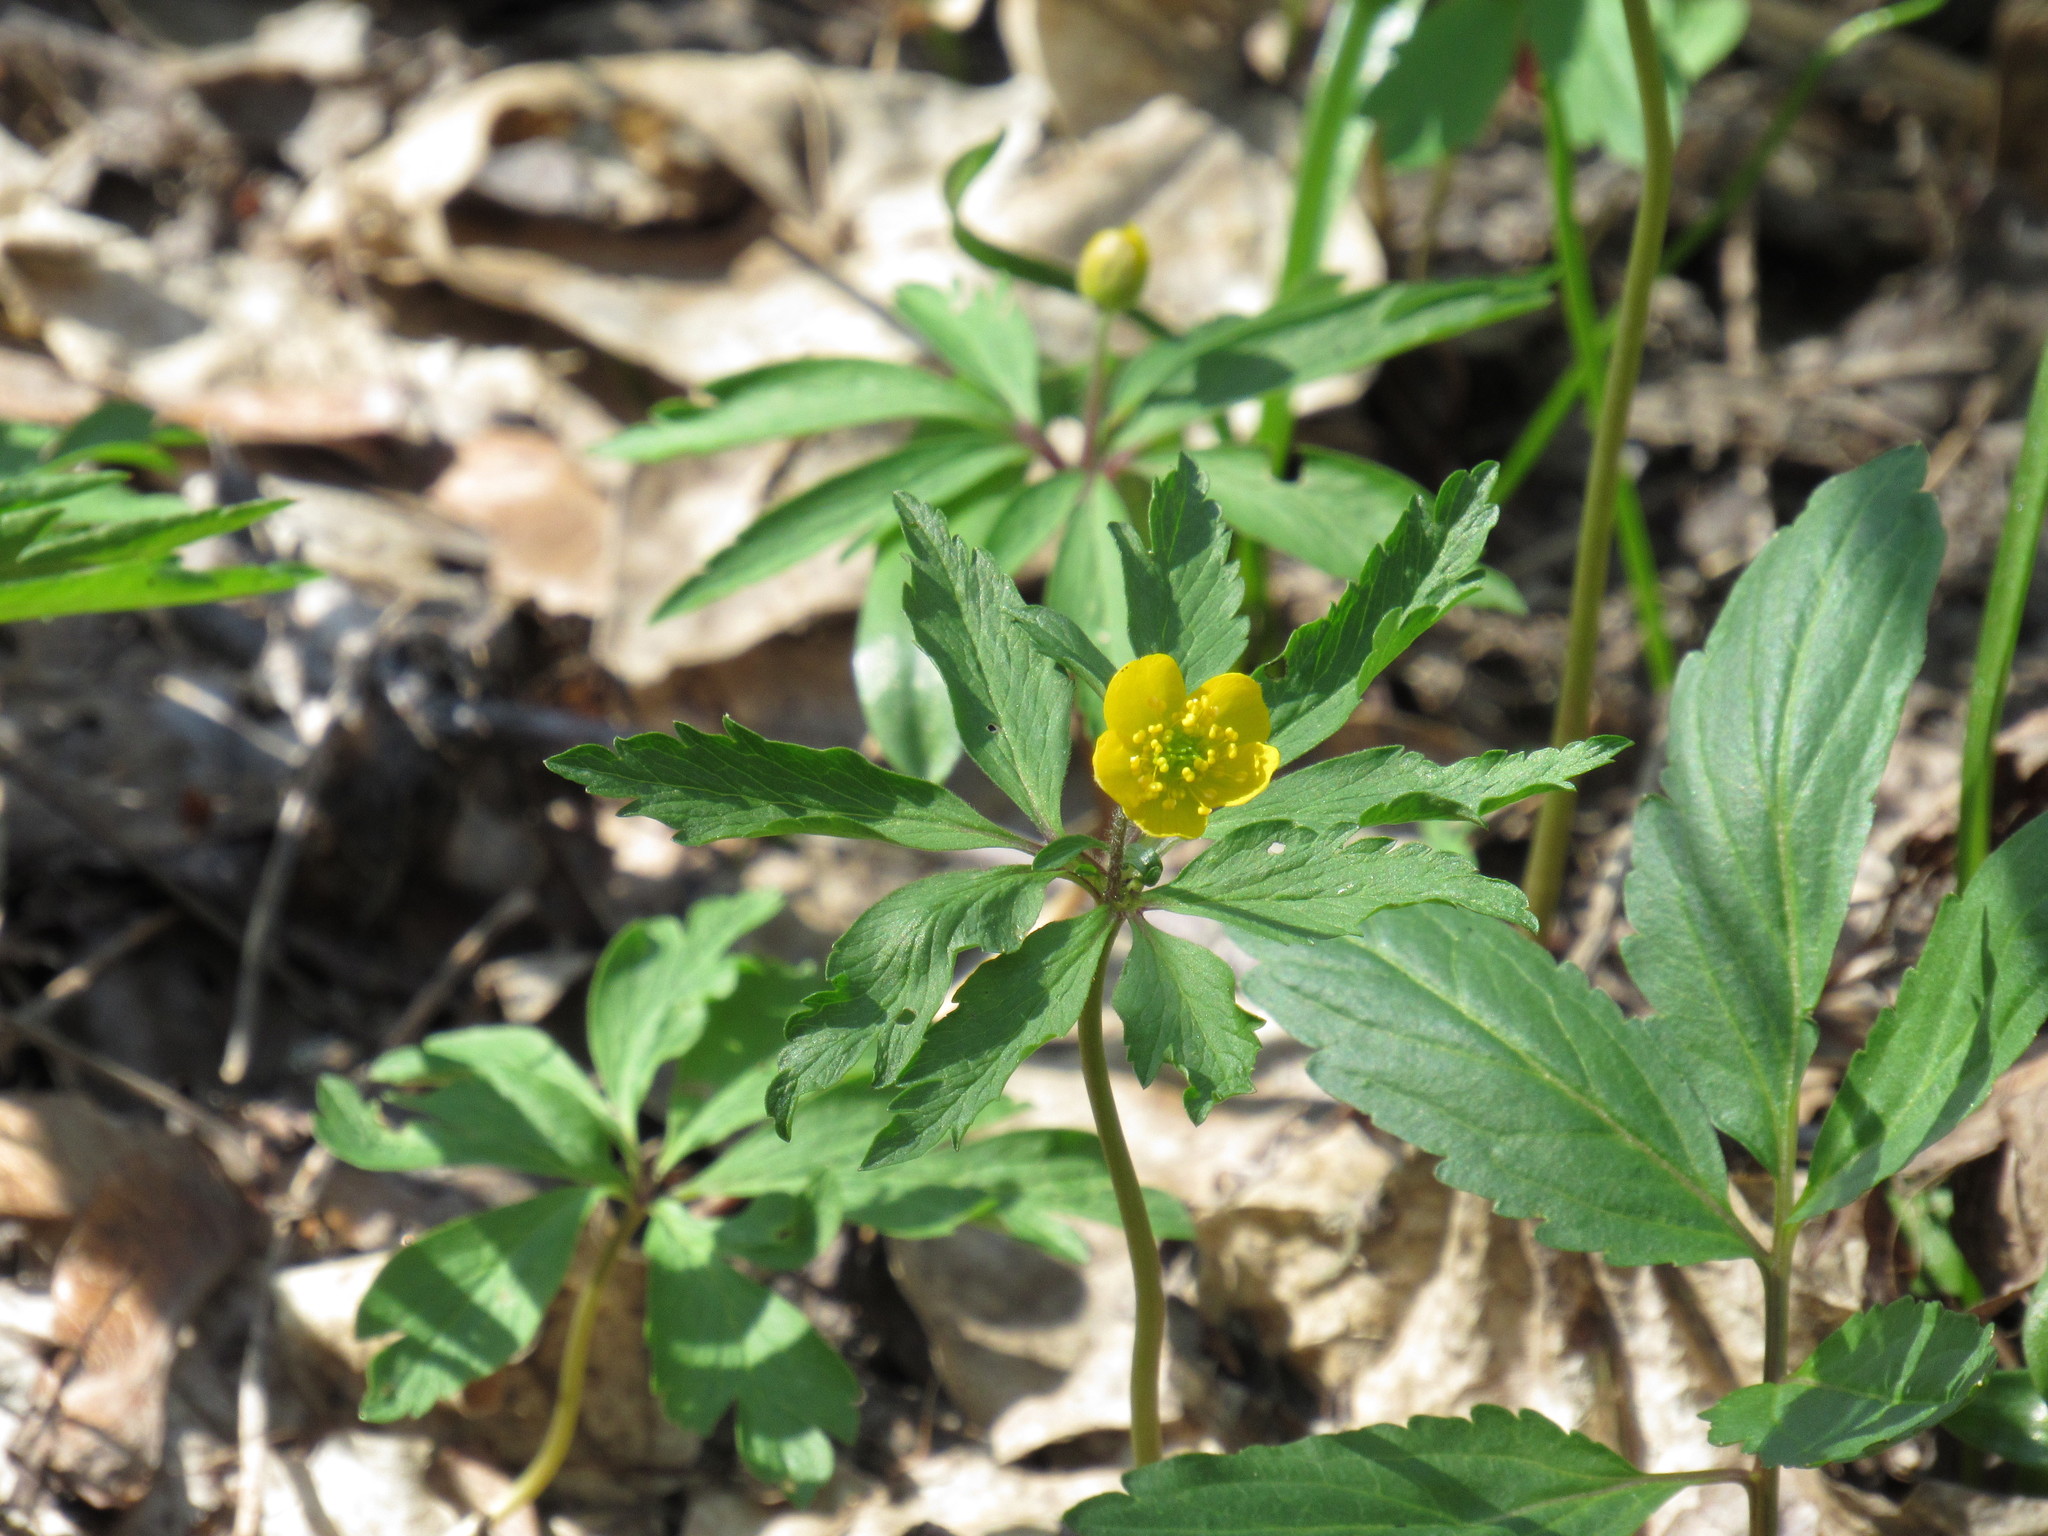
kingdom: Plantae
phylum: Tracheophyta
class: Magnoliopsida
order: Ranunculales
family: Ranunculaceae
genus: Anemone
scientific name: Anemone ranunculoides
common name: Yellow anemone
